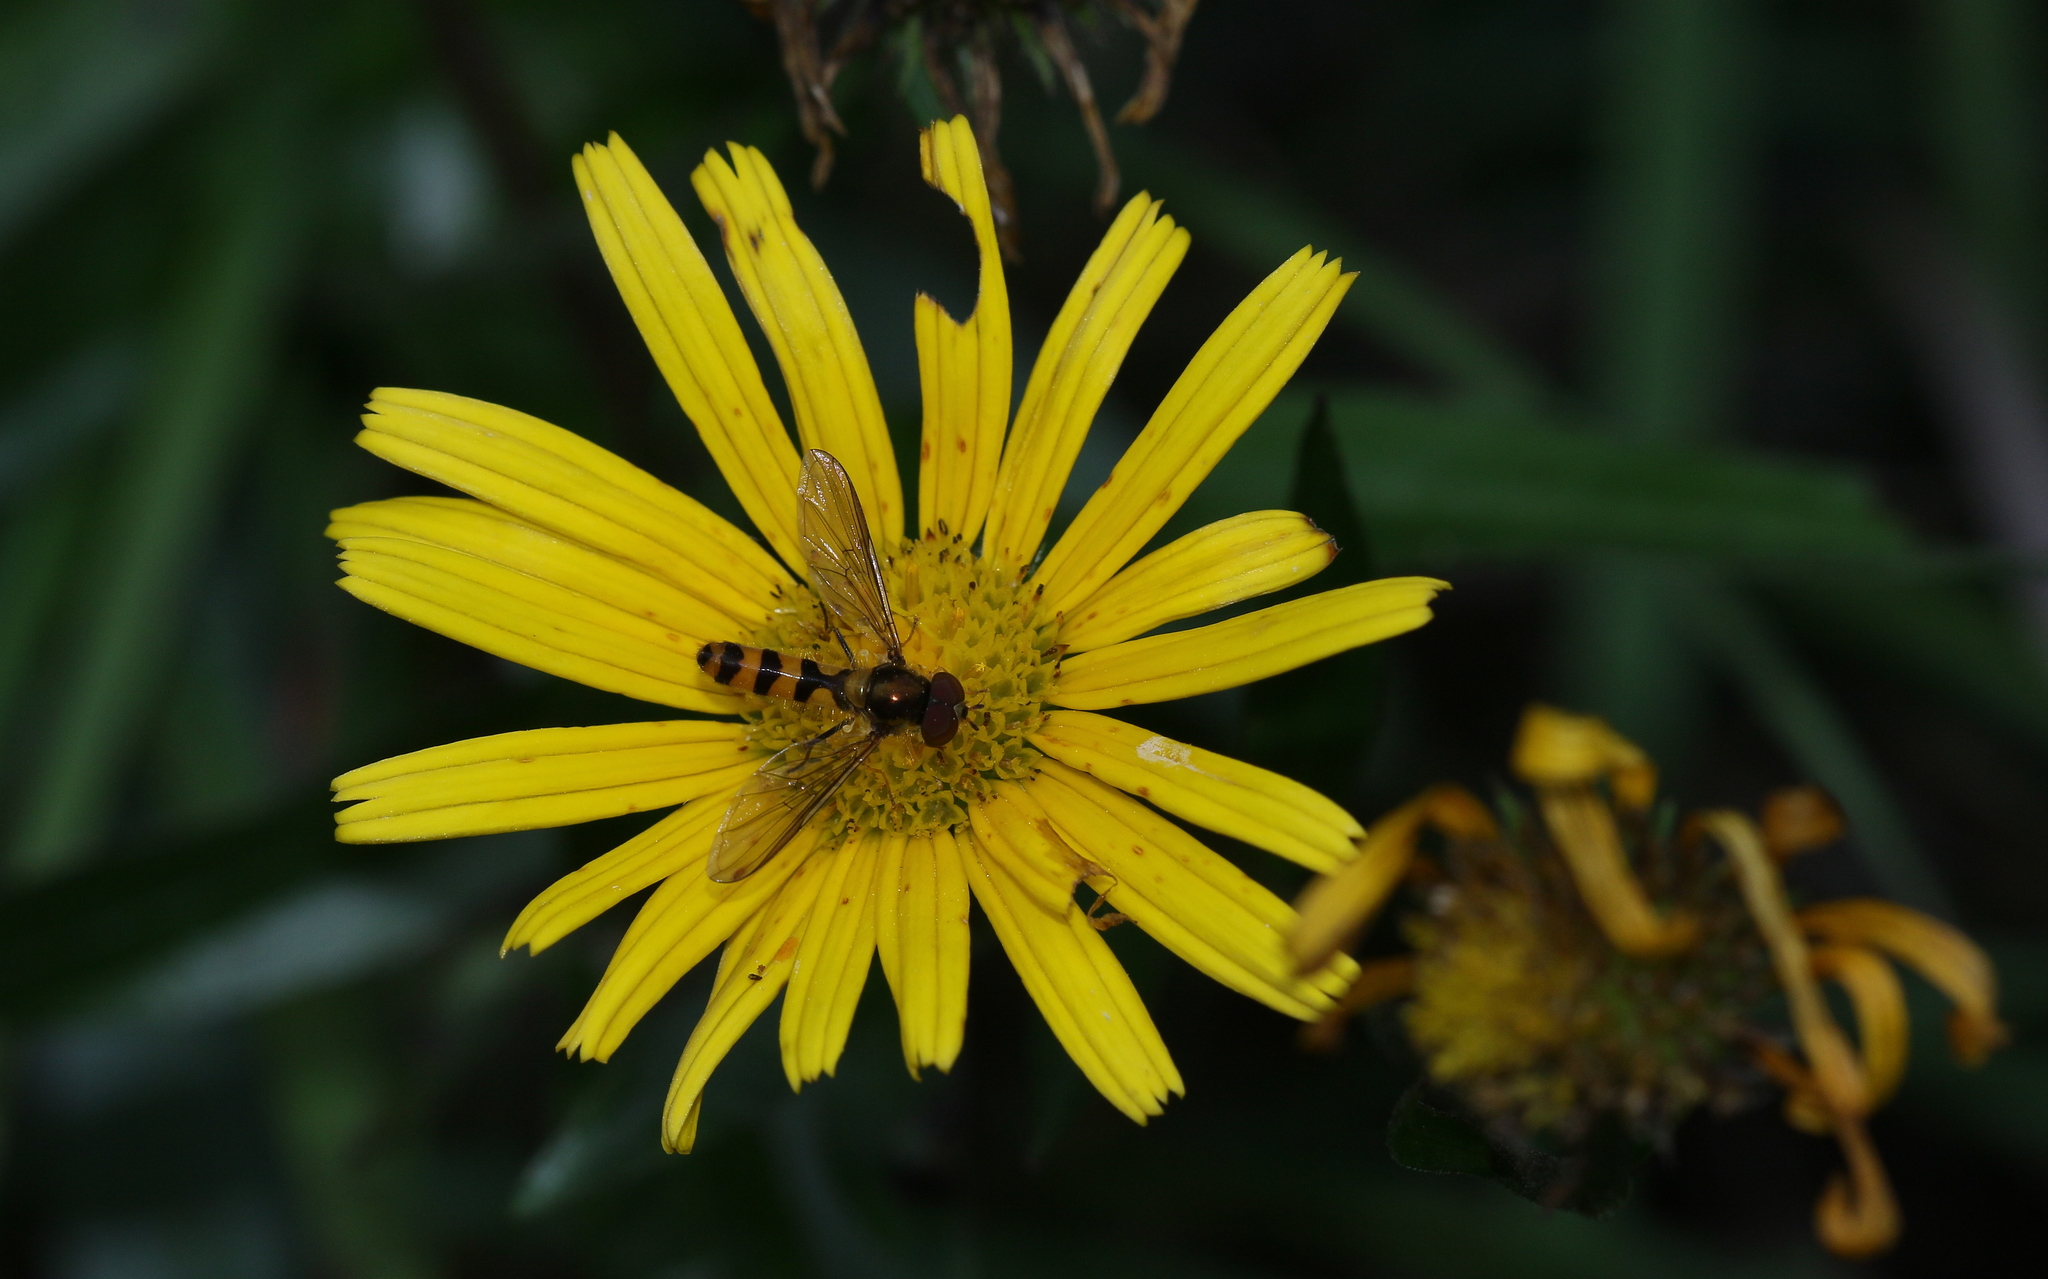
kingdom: Animalia
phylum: Arthropoda
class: Insecta
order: Diptera
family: Syrphidae
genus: Meliscaeva
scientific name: Meliscaeva cinctella
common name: American thintail fly
